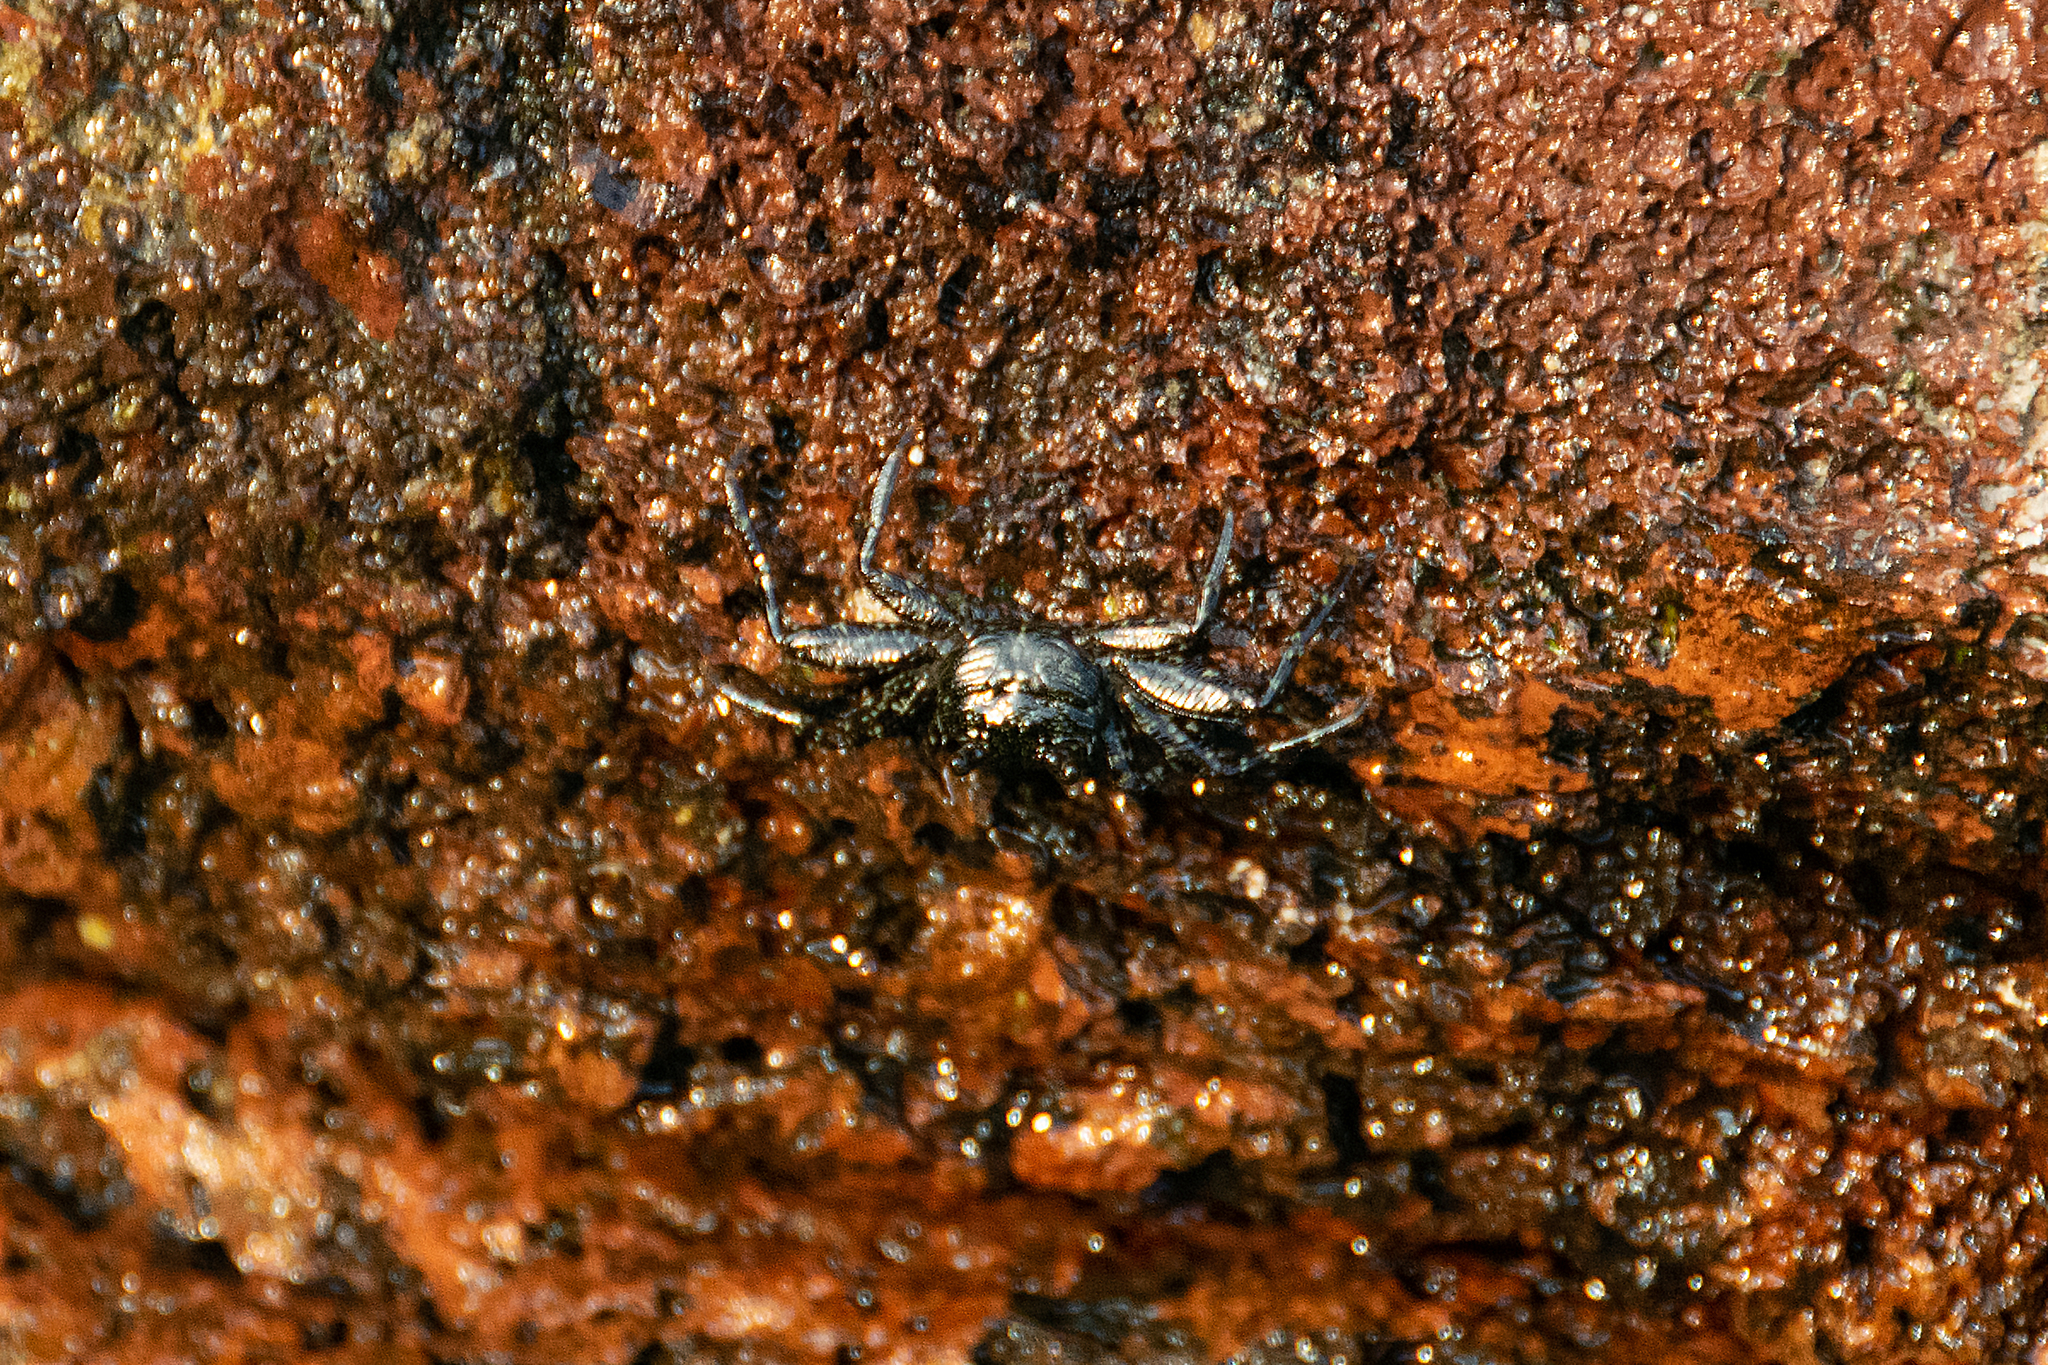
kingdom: Animalia
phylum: Arthropoda
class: Malacostraca
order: Decapoda
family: Grapsidae
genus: Grapsus
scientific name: Grapsus grapsus
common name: Sally lightfoot
